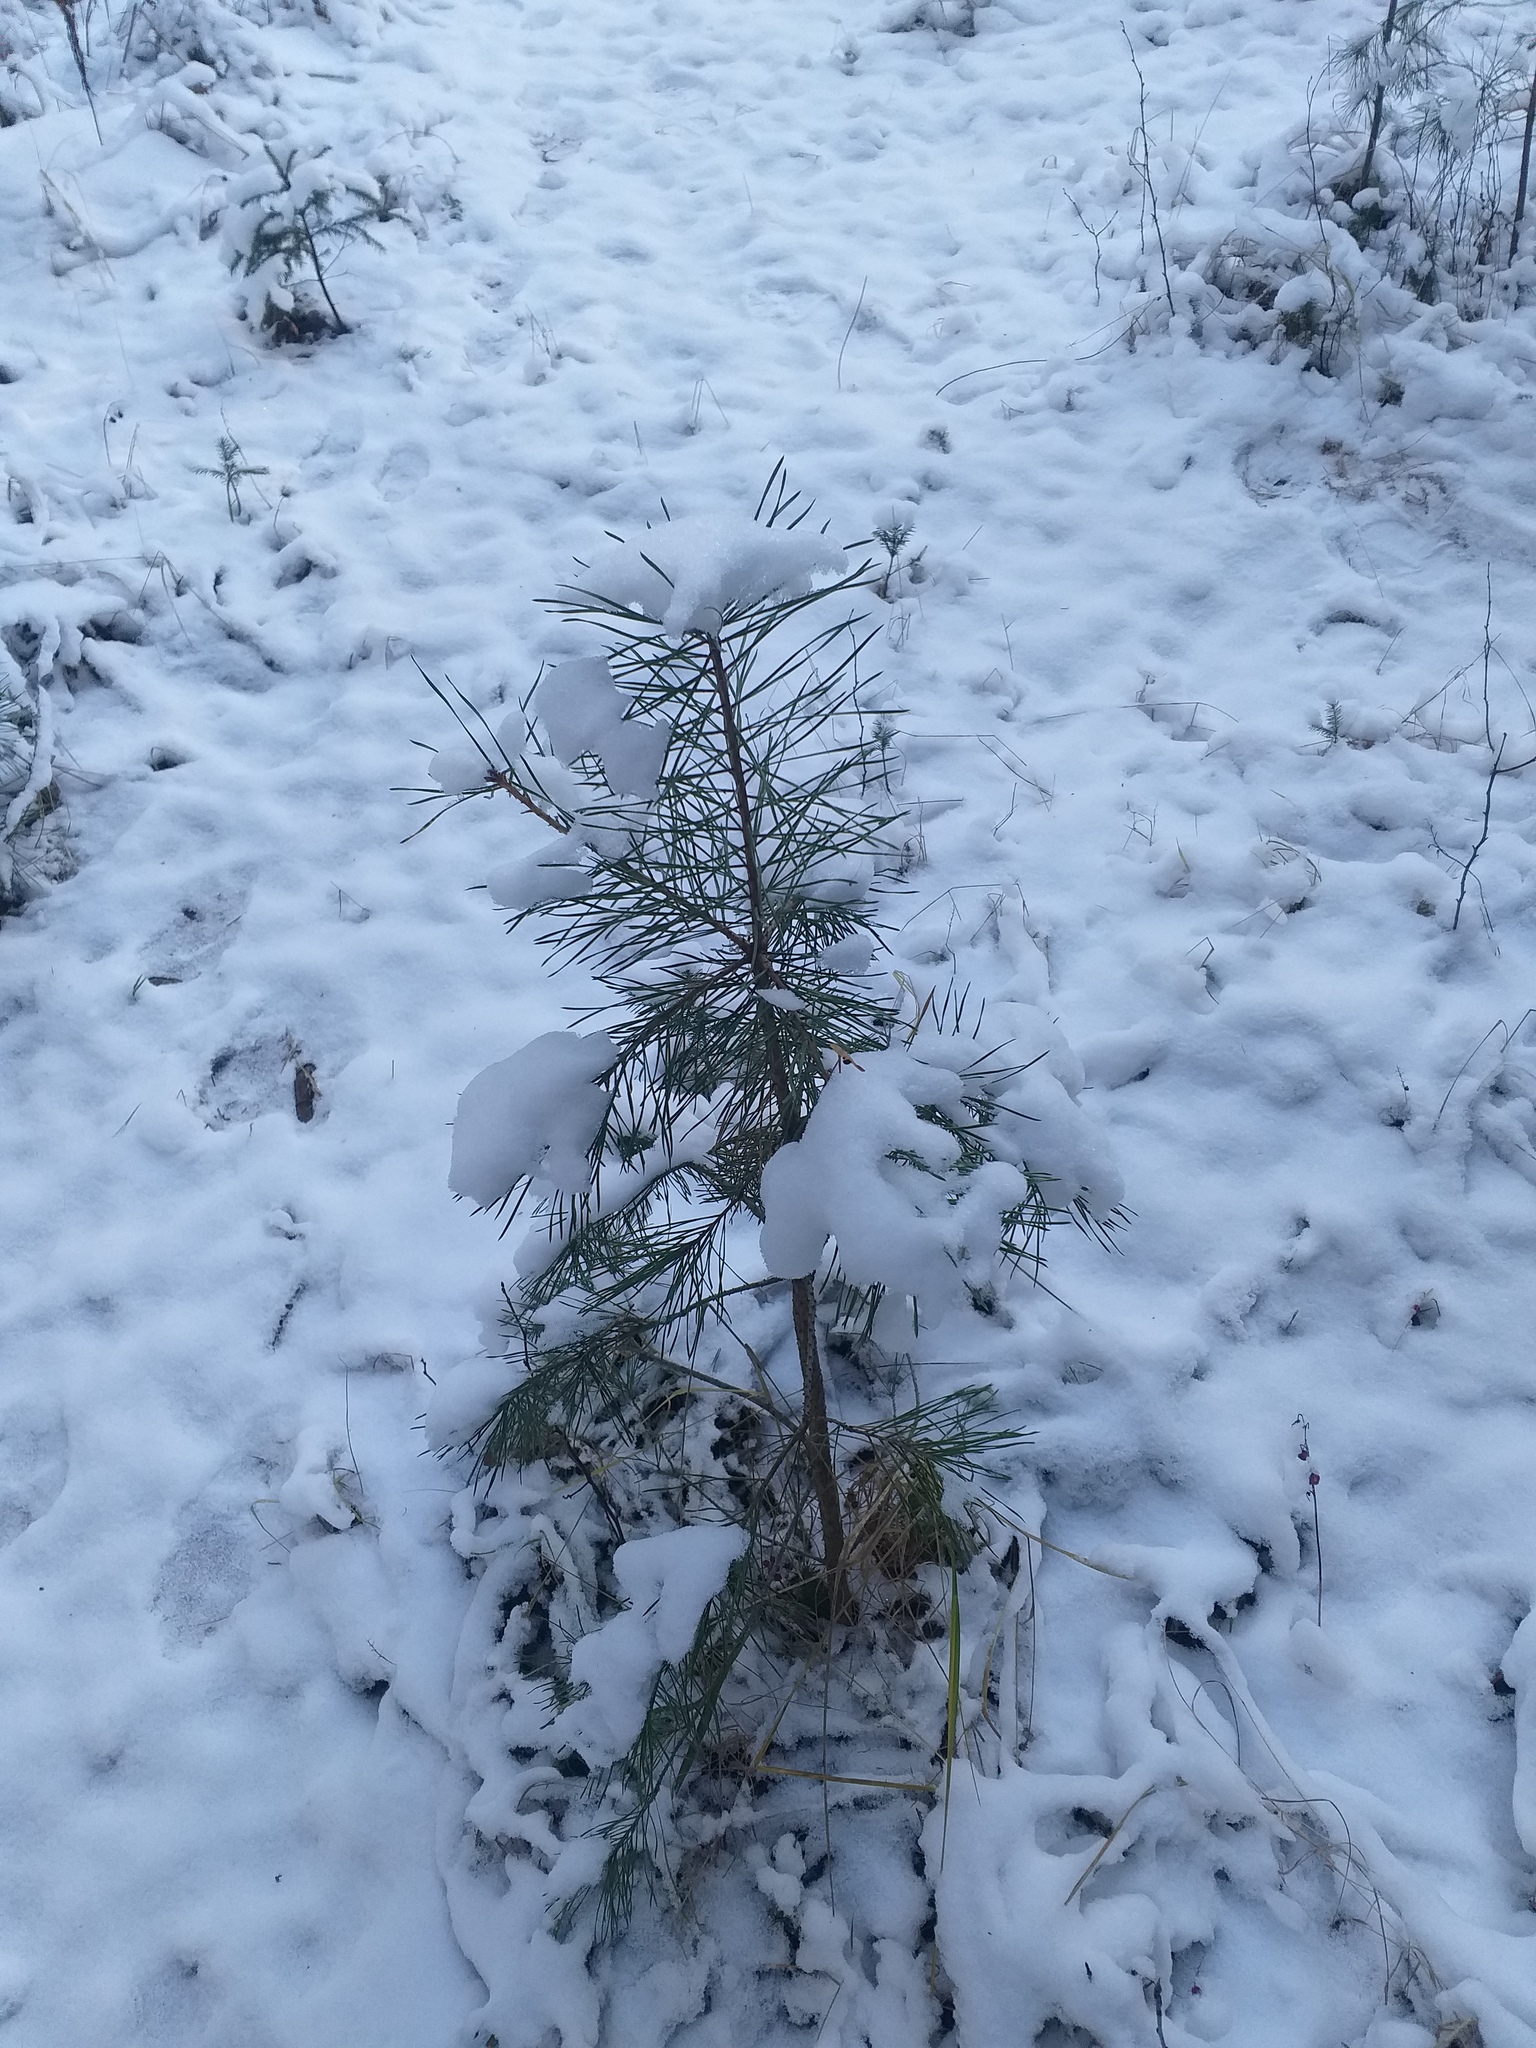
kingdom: Plantae
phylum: Tracheophyta
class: Pinopsida
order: Pinales
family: Pinaceae
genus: Pinus
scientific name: Pinus sylvestris
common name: Scots pine
